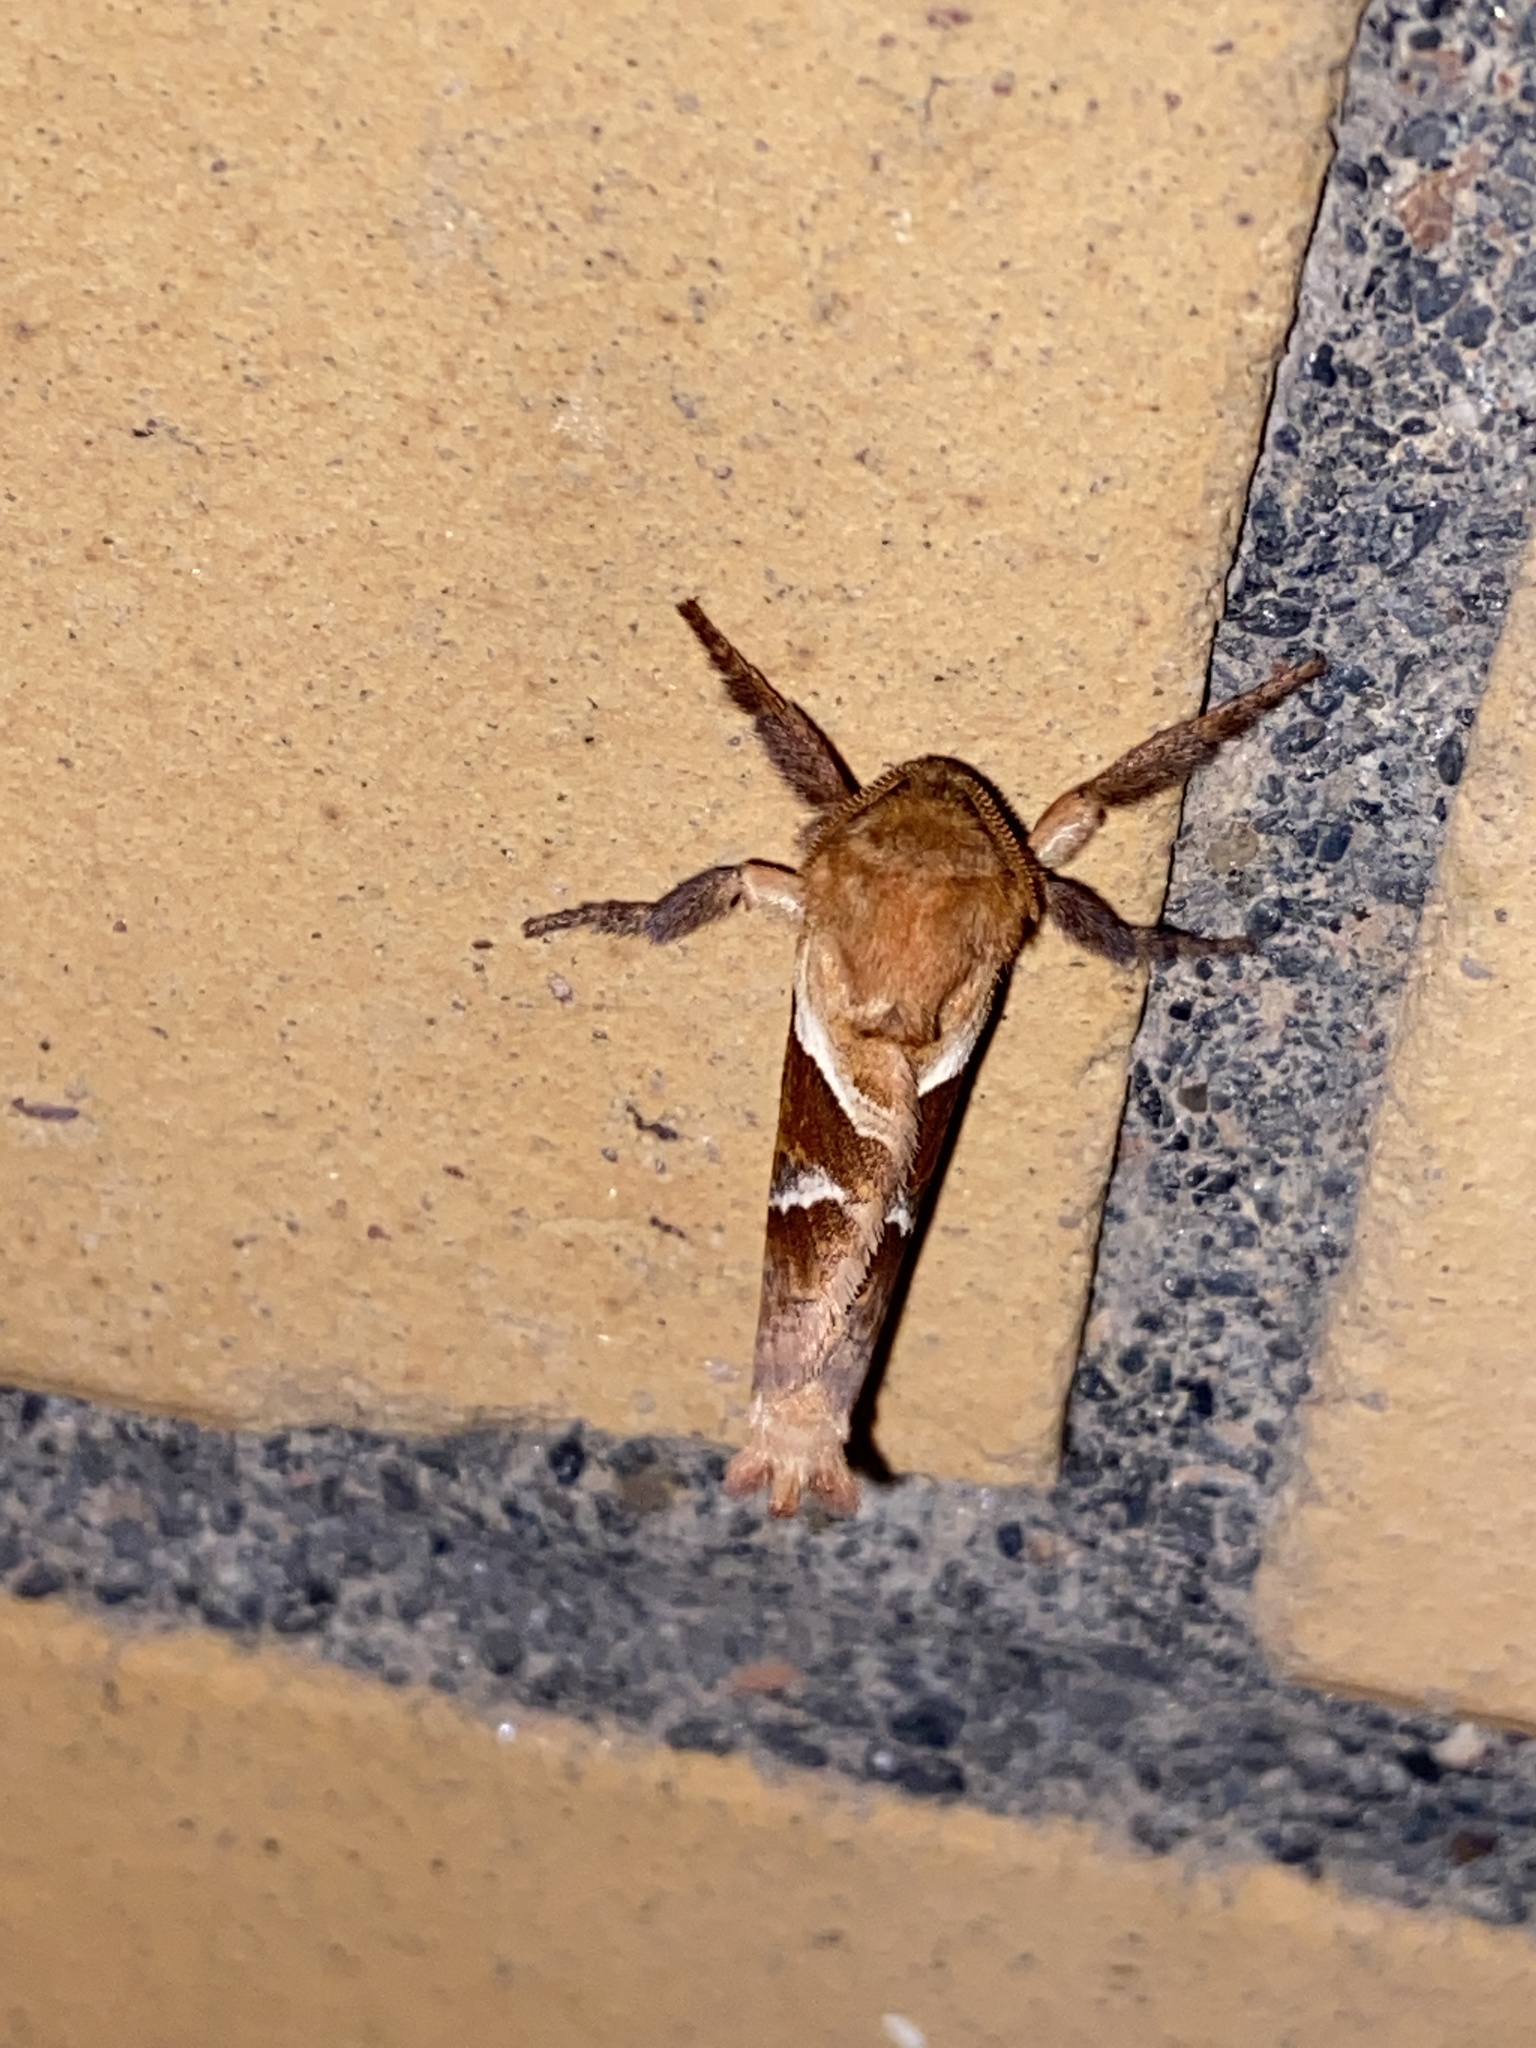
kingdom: Animalia
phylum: Arthropoda
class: Insecta
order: Lepidoptera
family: Hepialidae
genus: Triodia
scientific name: Triodia sylvina
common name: Orange swift
